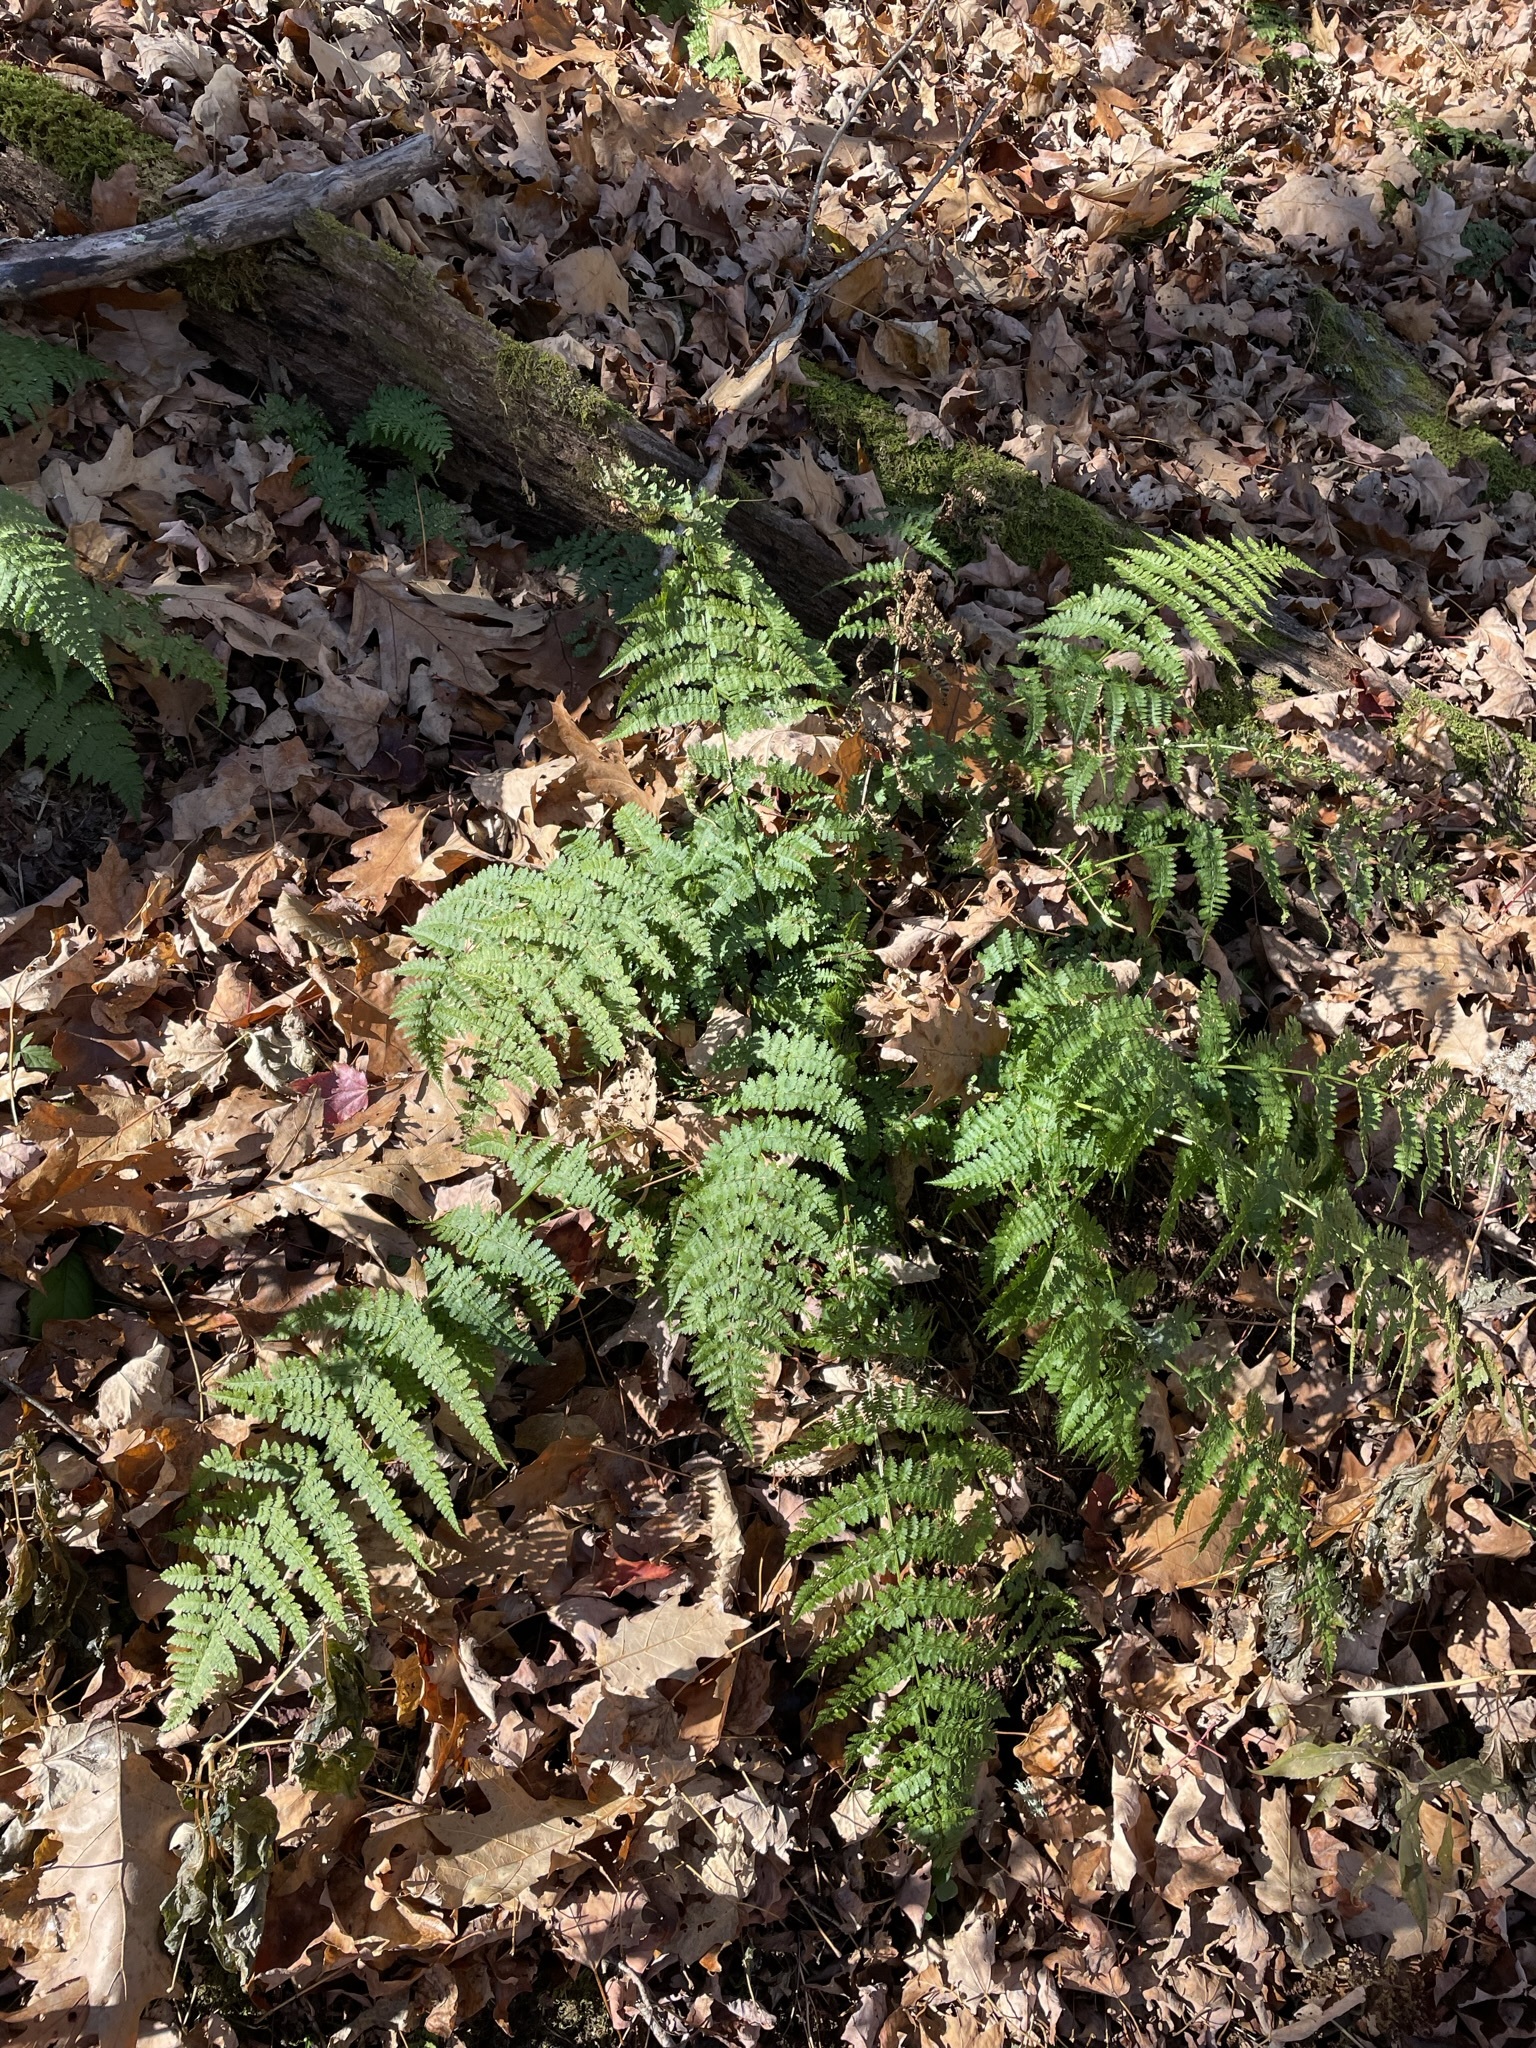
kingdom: Plantae
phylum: Tracheophyta
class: Polypodiopsida
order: Polypodiales
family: Dryopteridaceae
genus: Dryopteris
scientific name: Dryopteris intermedia
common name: Evergreen wood fern
